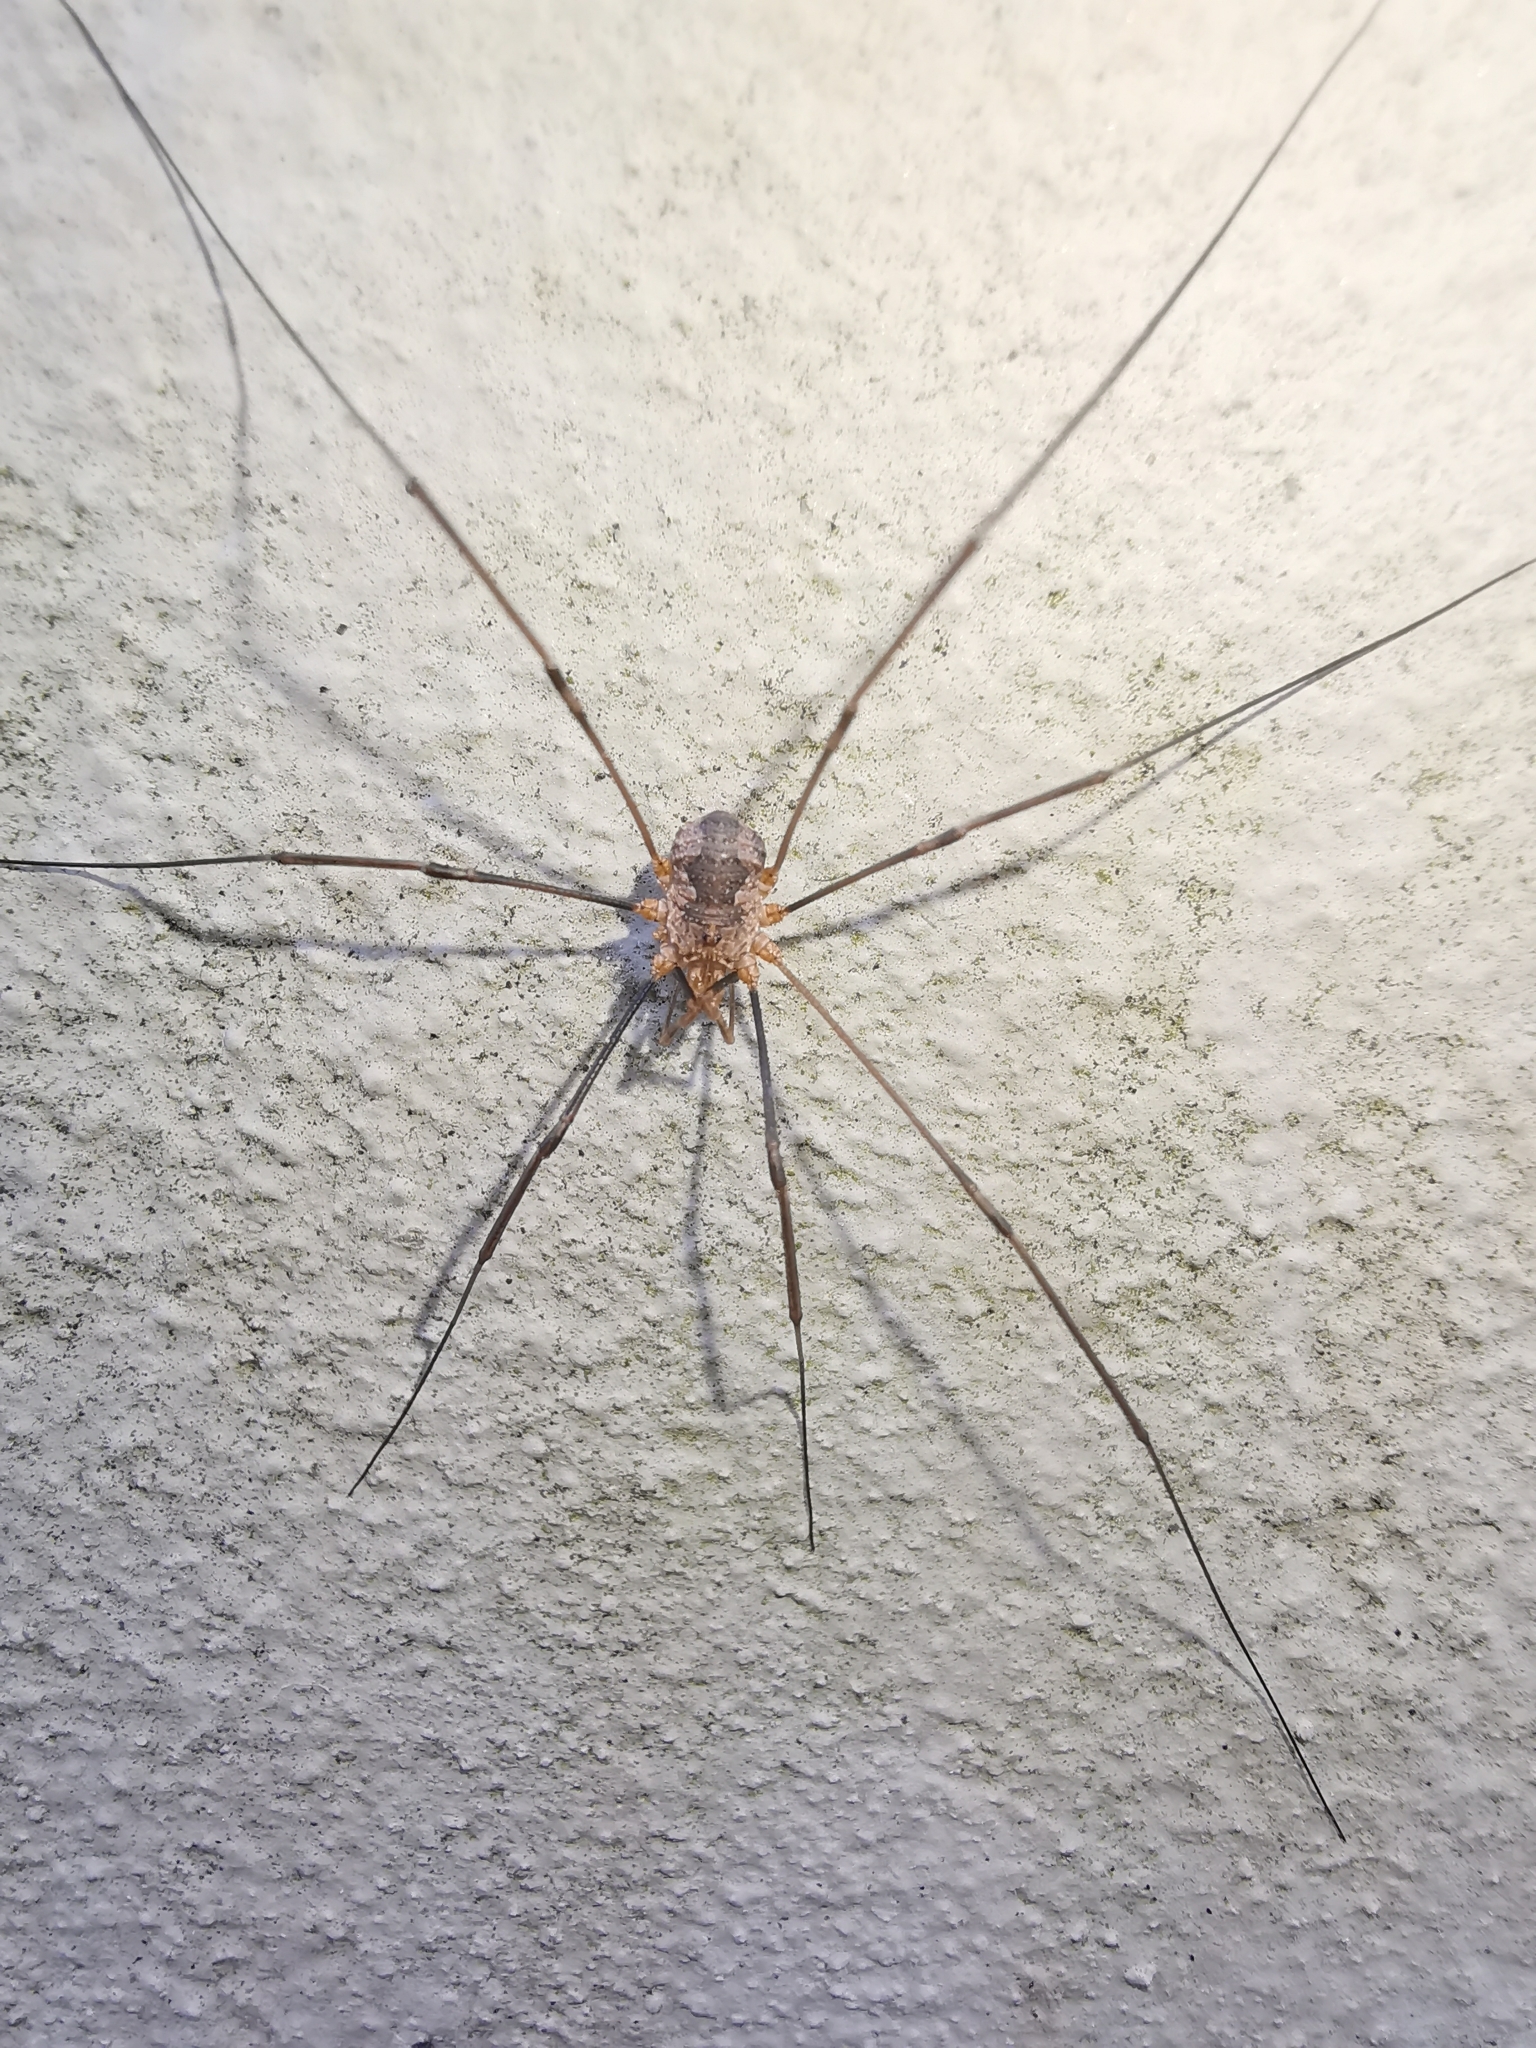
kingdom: Animalia
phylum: Arthropoda
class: Arachnida
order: Opiliones
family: Phalangiidae
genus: Phalangium
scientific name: Phalangium opilio
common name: Daddy longleg
